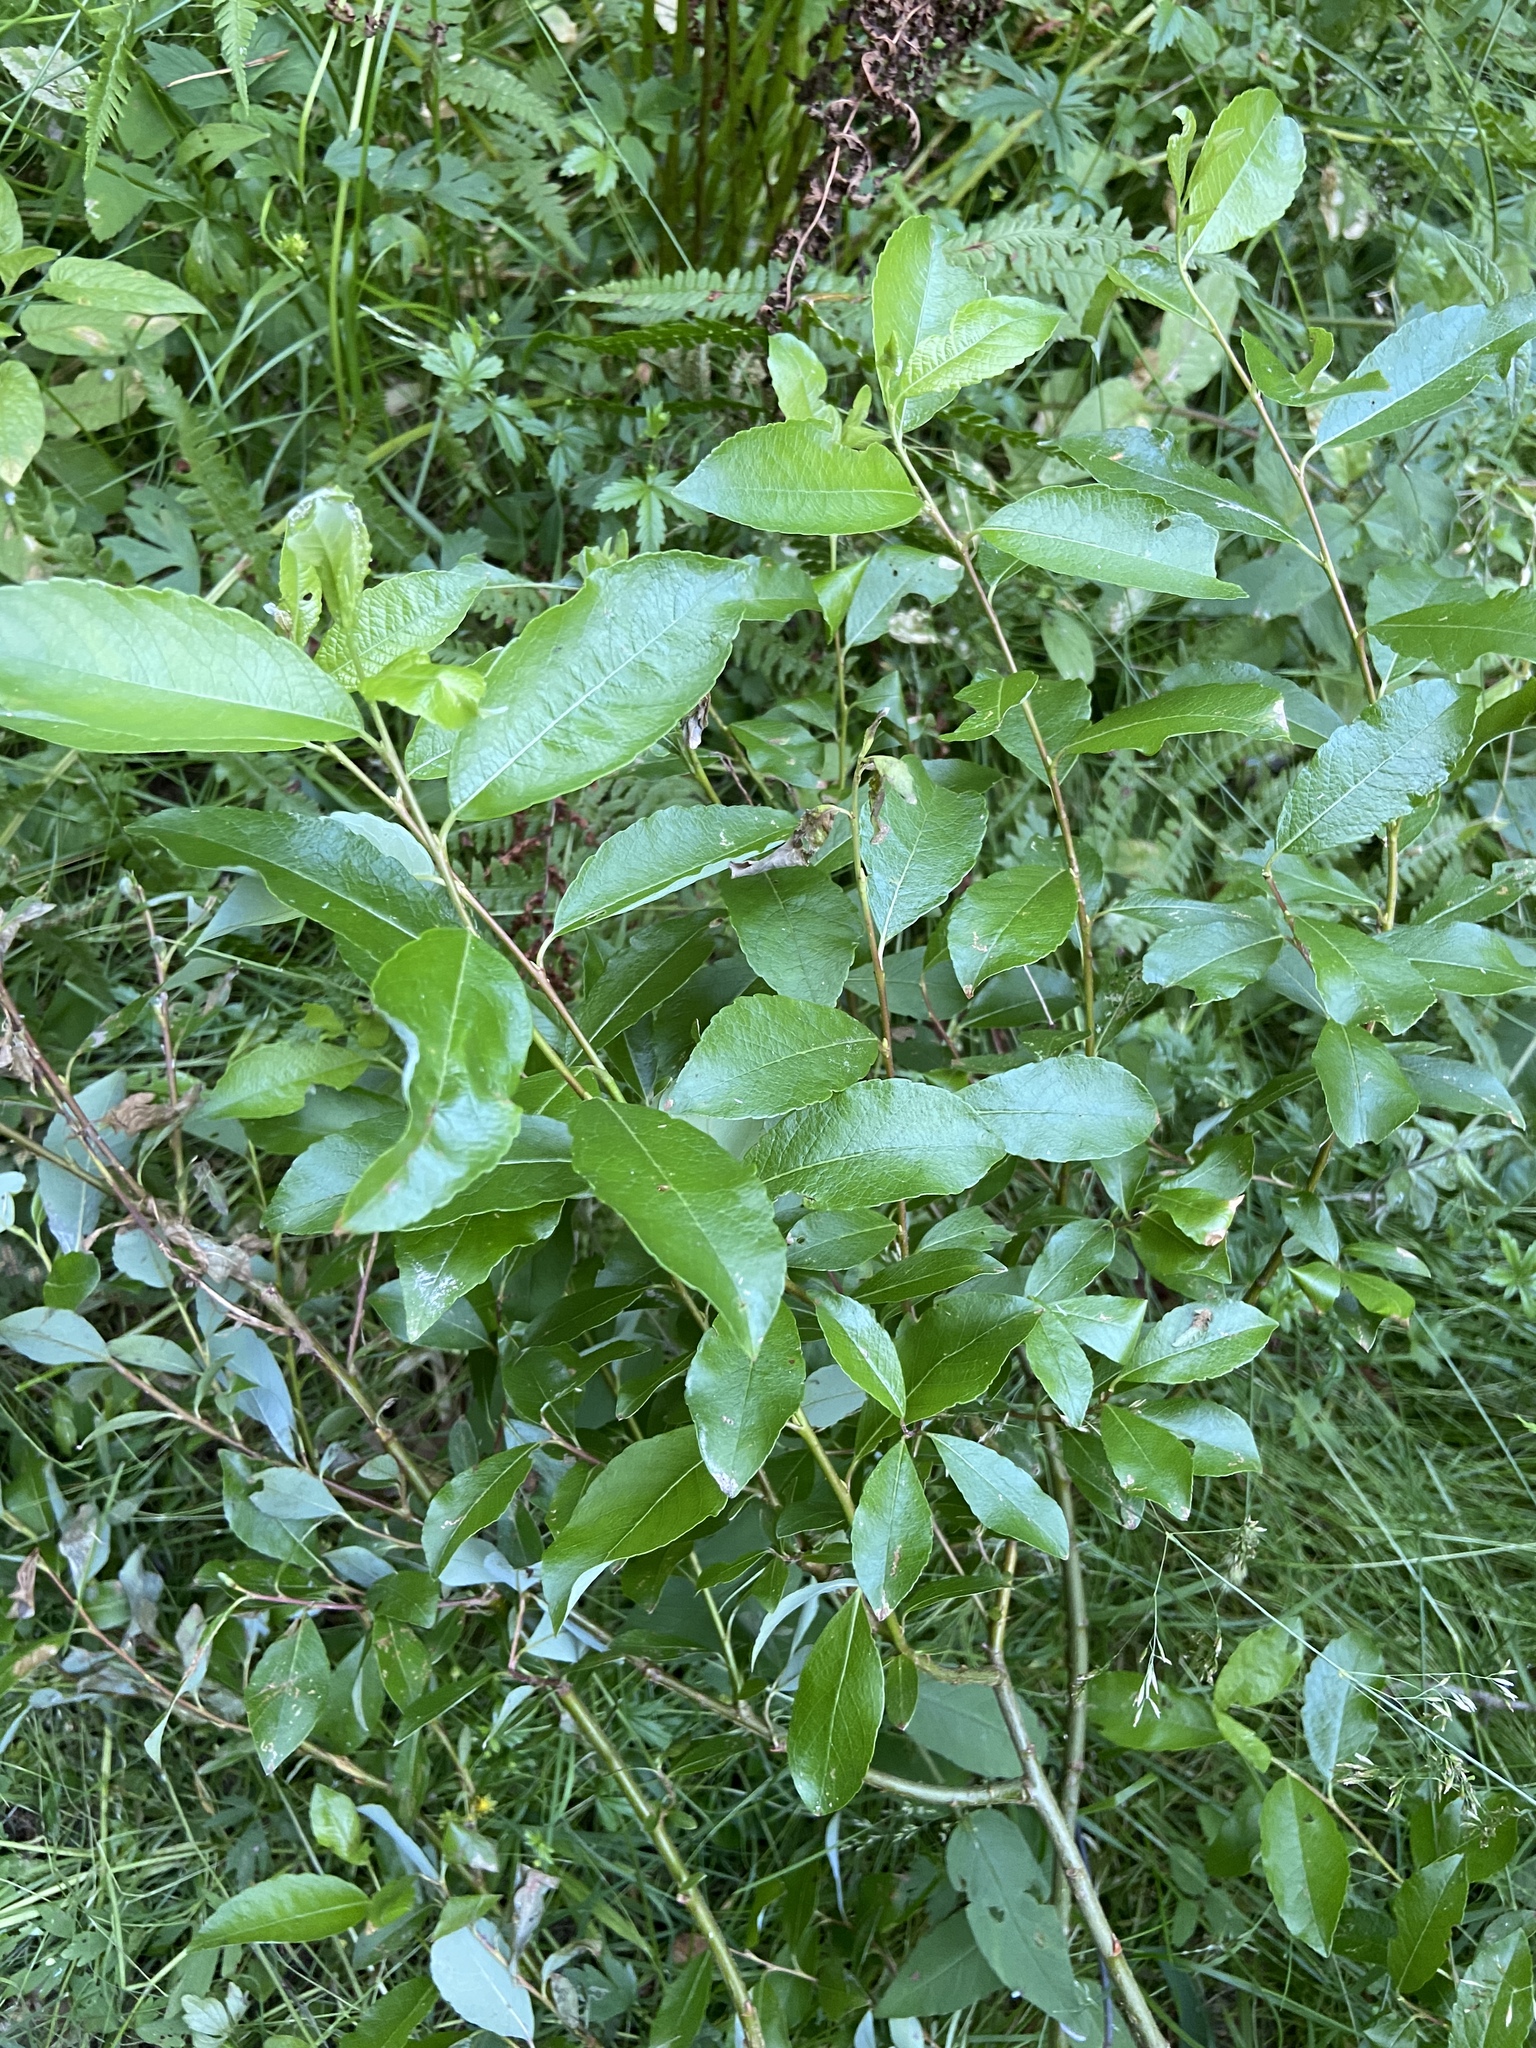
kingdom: Plantae
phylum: Tracheophyta
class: Magnoliopsida
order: Malpighiales
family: Salicaceae
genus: Salix
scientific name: Salix myrsinifolia
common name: Dark-leaved willow
